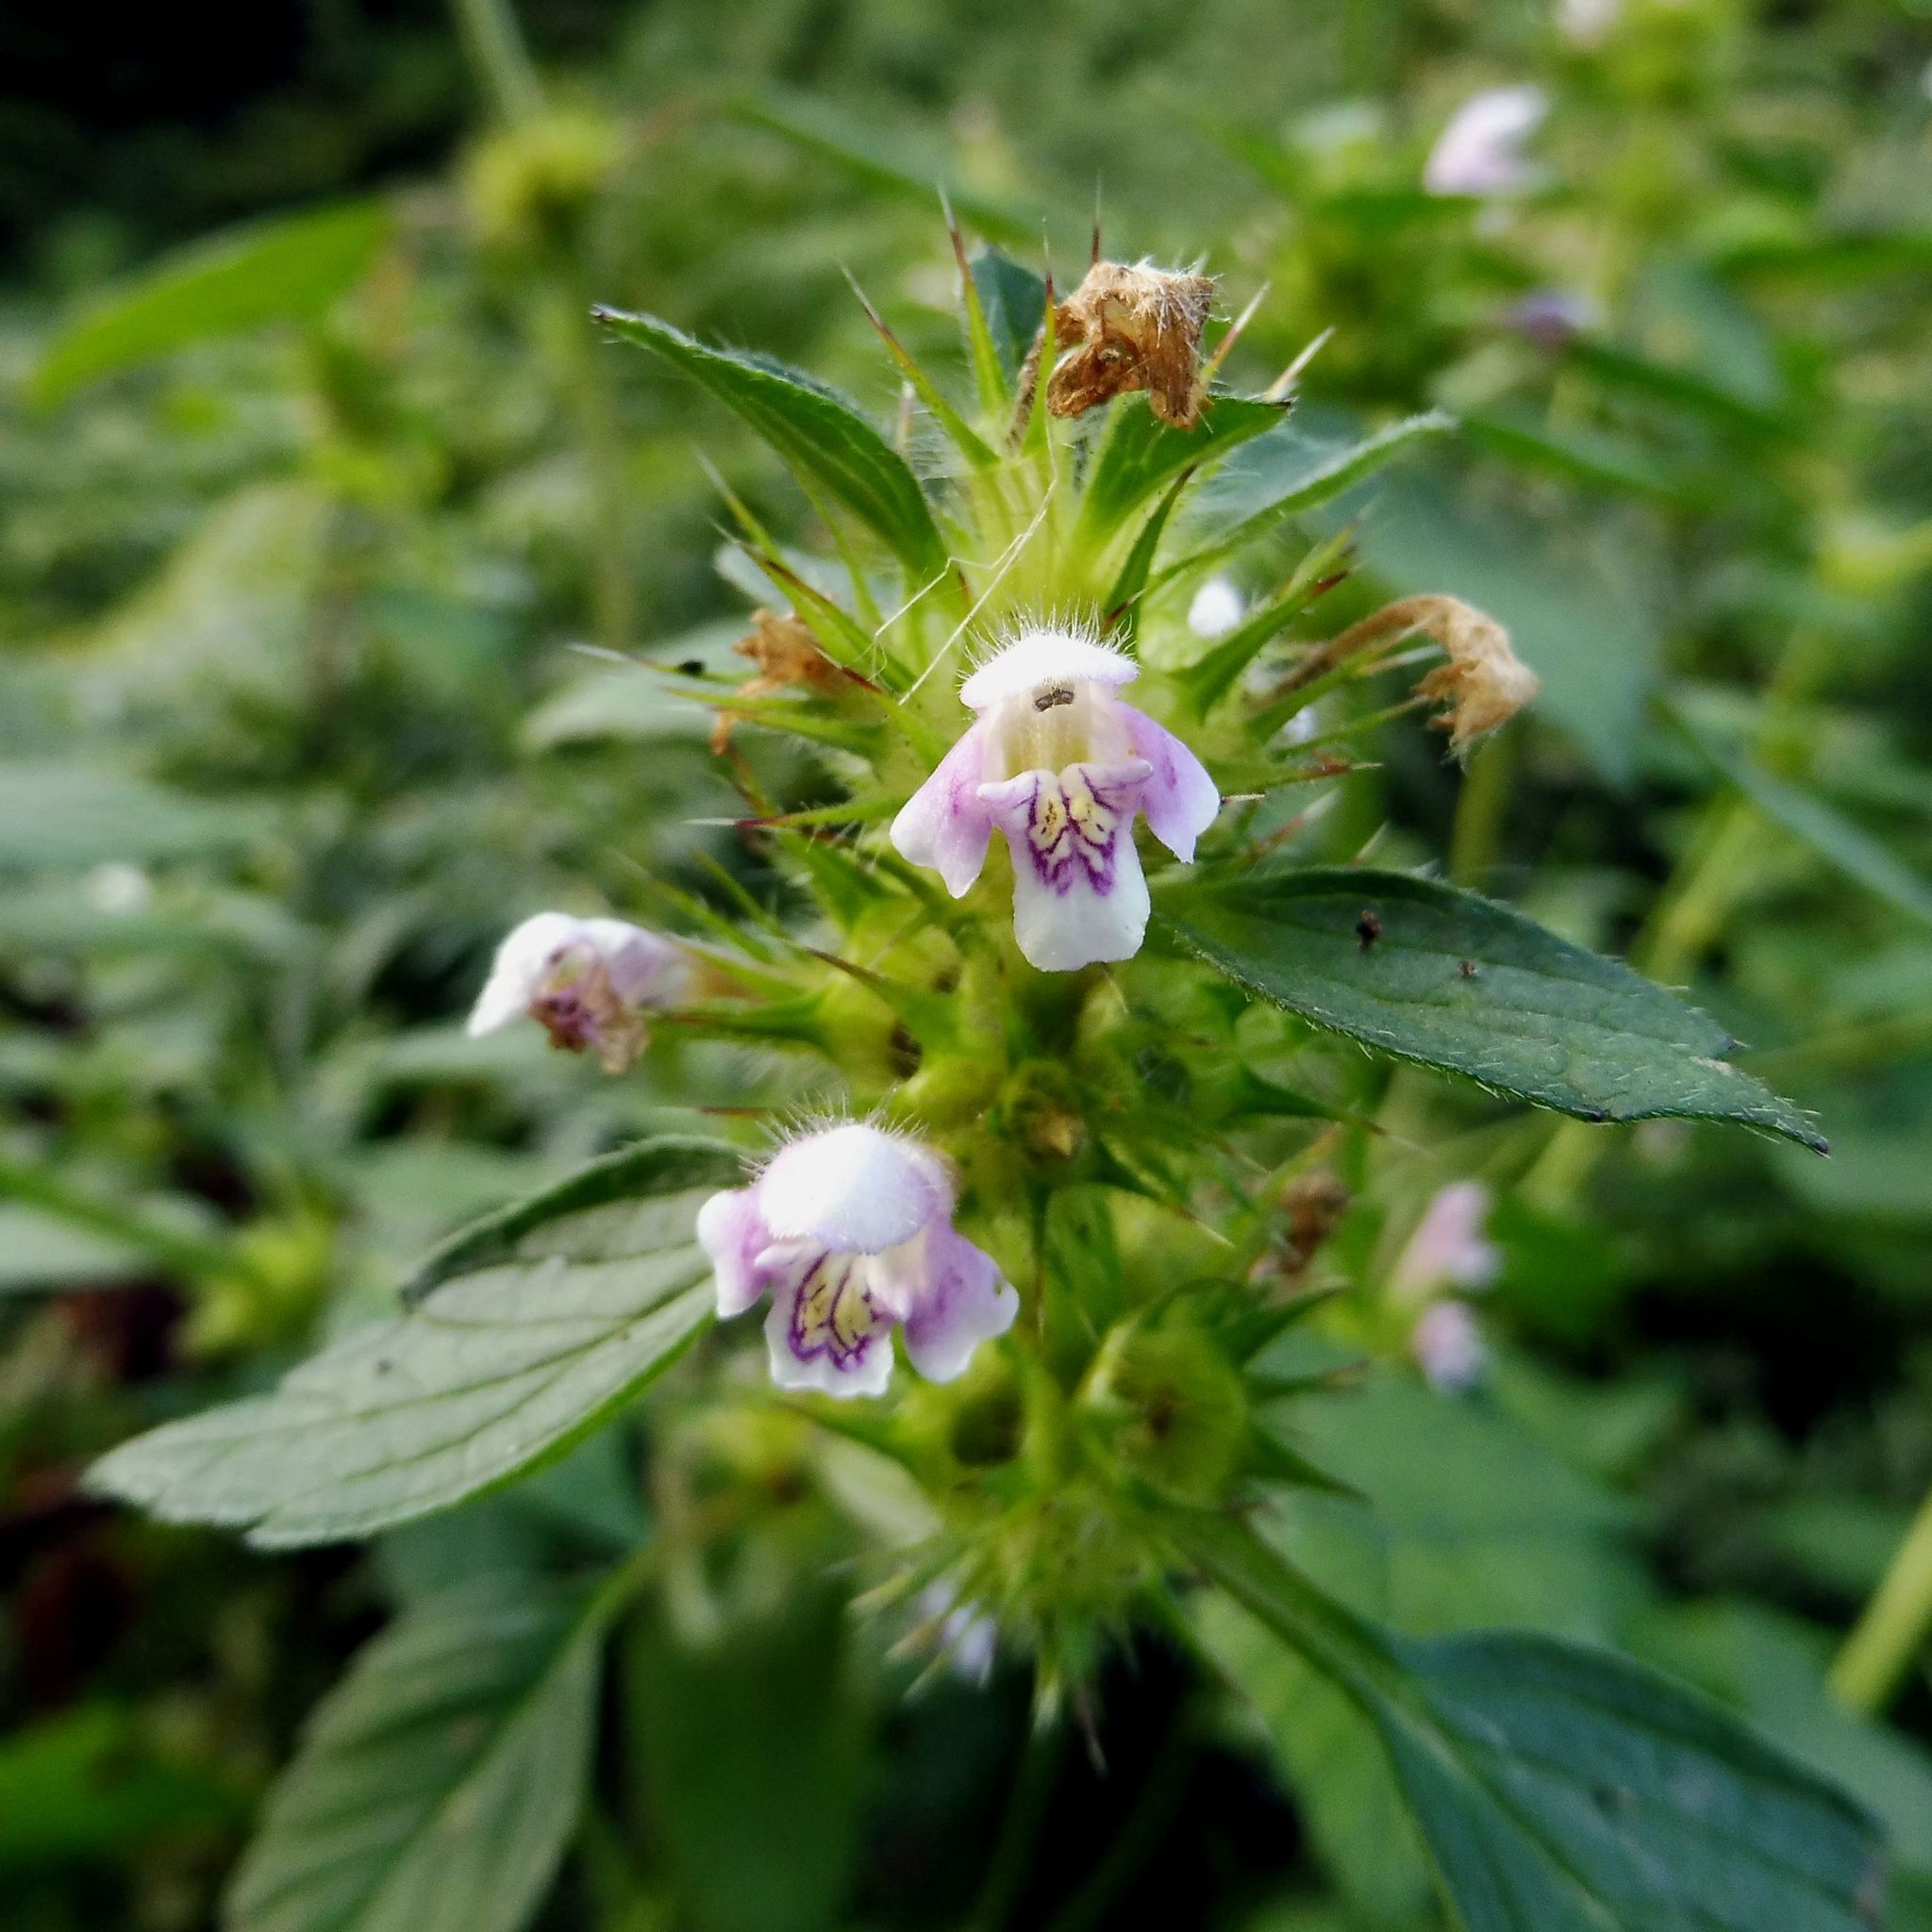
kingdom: Plantae
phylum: Tracheophyta
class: Magnoliopsida
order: Lamiales
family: Lamiaceae
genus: Galeopsis
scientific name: Galeopsis tetrahit
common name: Common hemp-nettle
